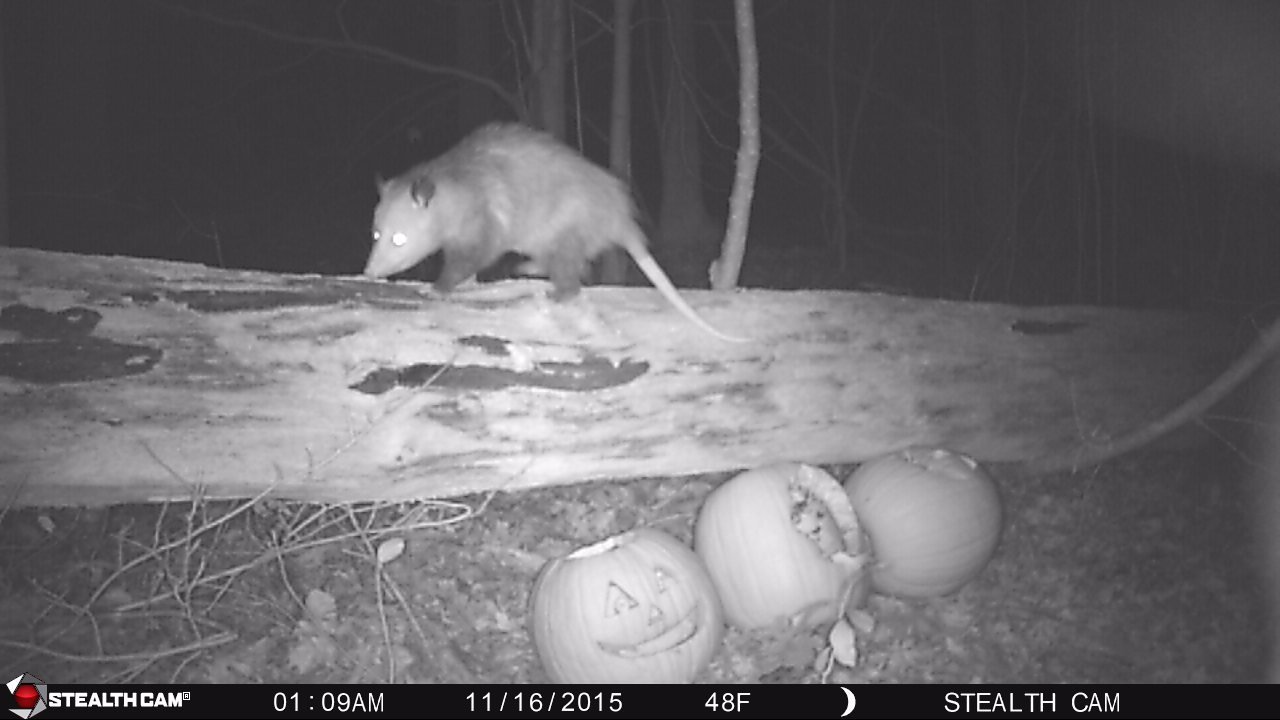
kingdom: Animalia
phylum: Chordata
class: Mammalia
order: Didelphimorphia
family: Didelphidae
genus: Didelphis
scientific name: Didelphis virginiana
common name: Virginia opossum
